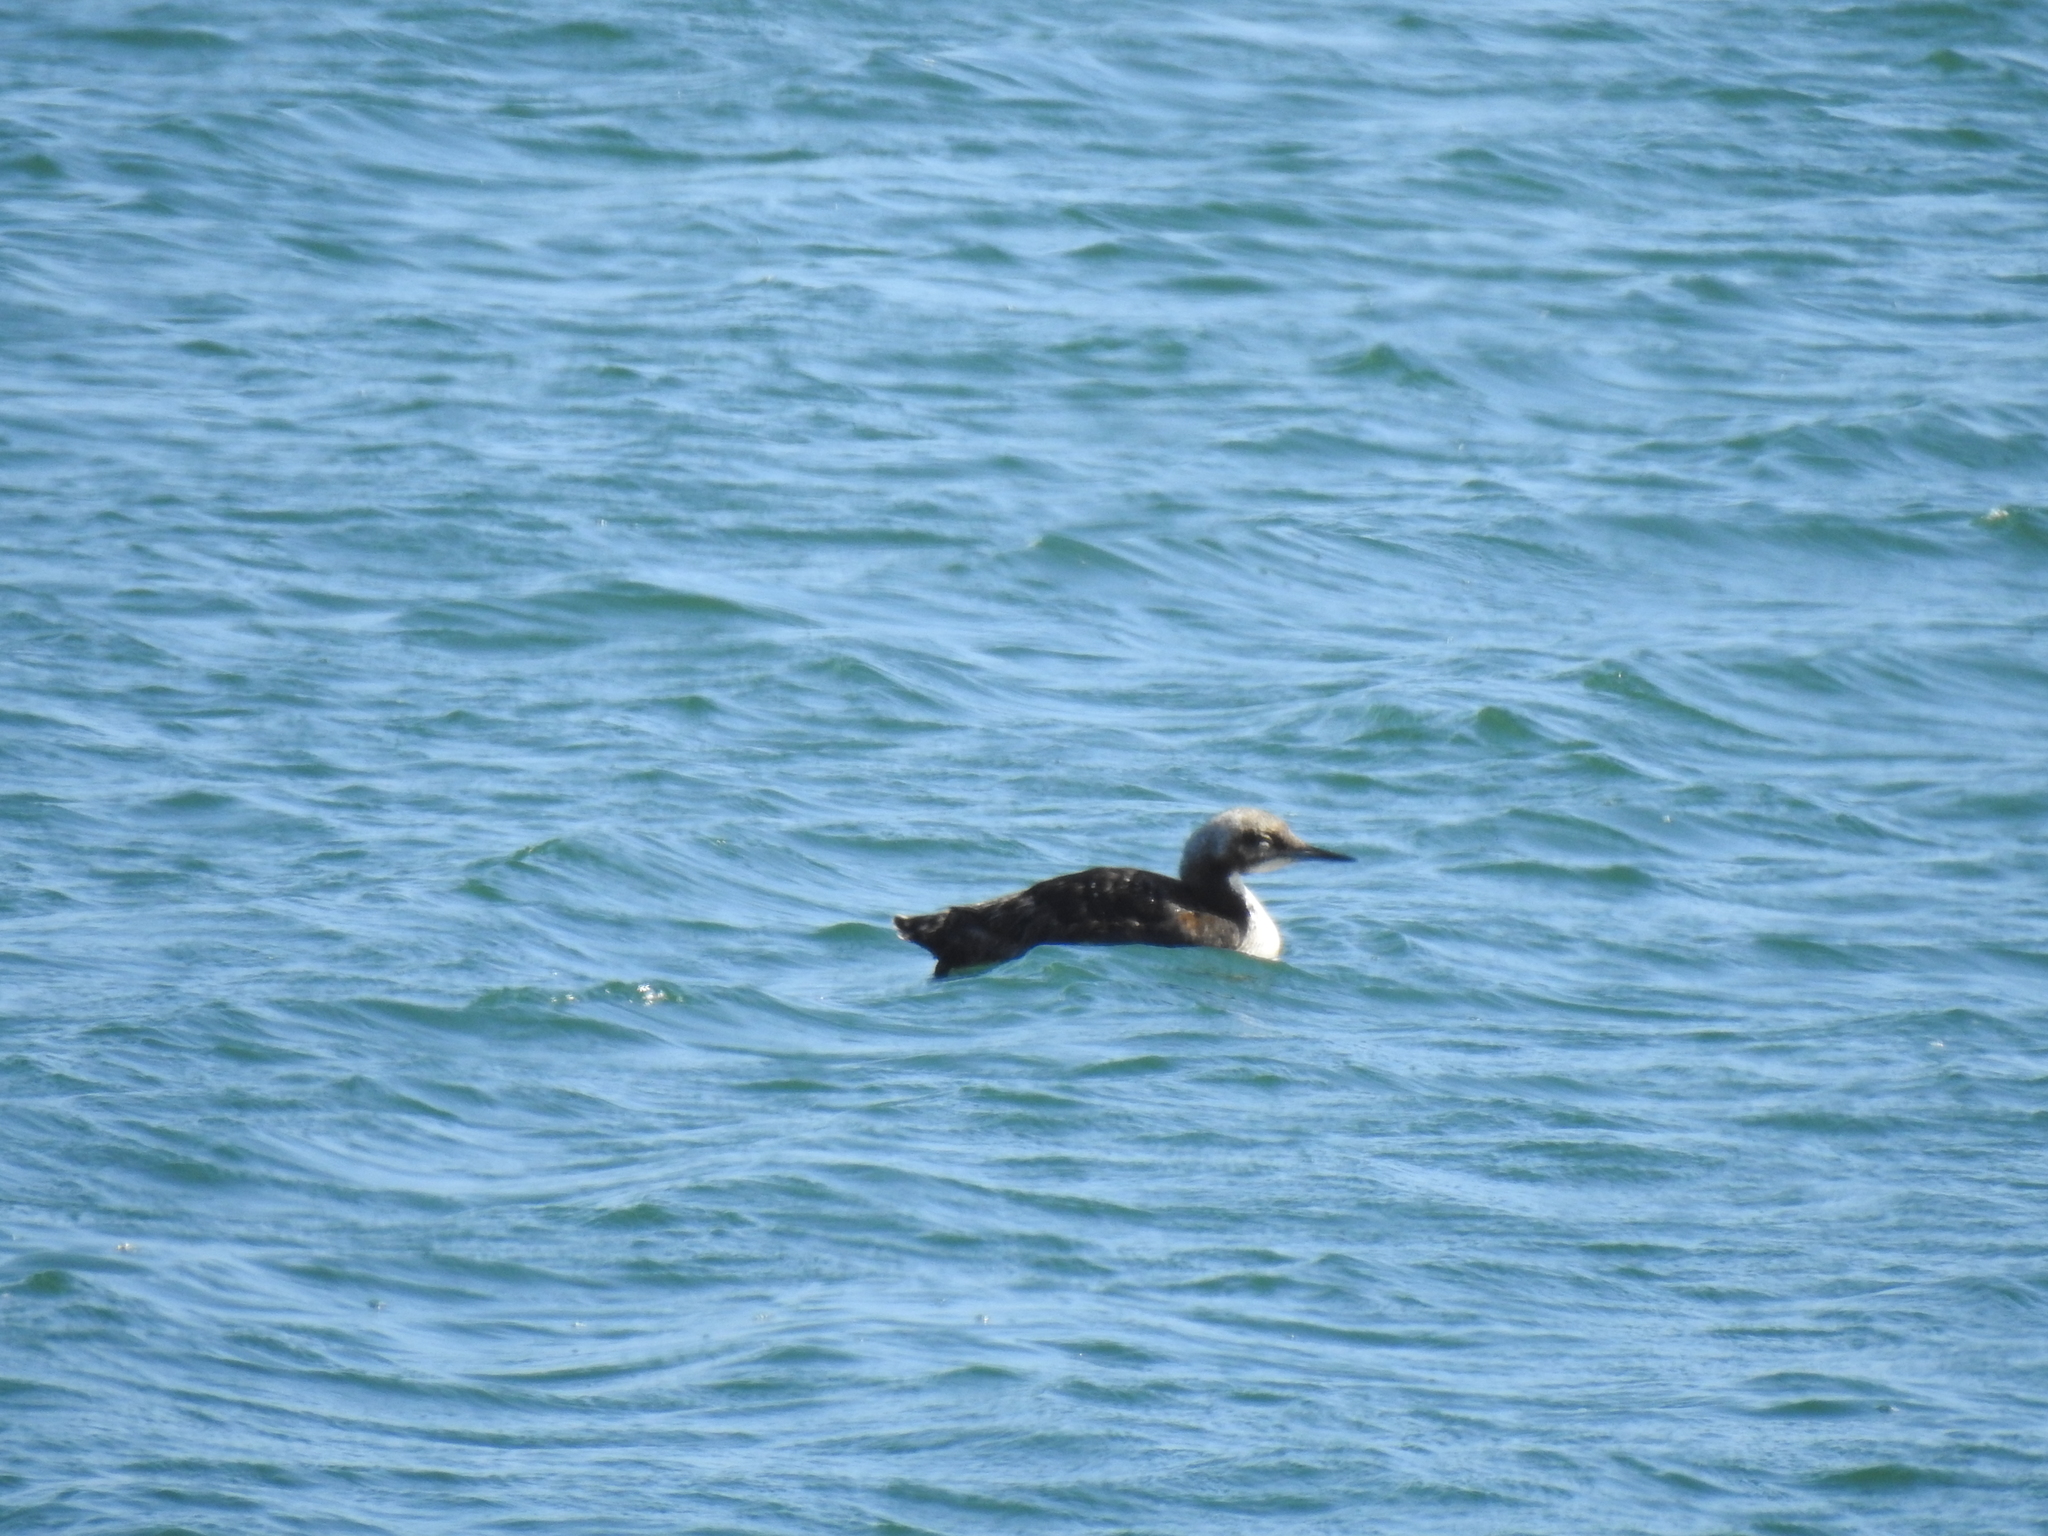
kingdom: Animalia
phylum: Chordata
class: Aves
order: Gaviiformes
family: Gaviidae
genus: Gavia
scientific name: Gavia pacifica
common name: Pacific loon
